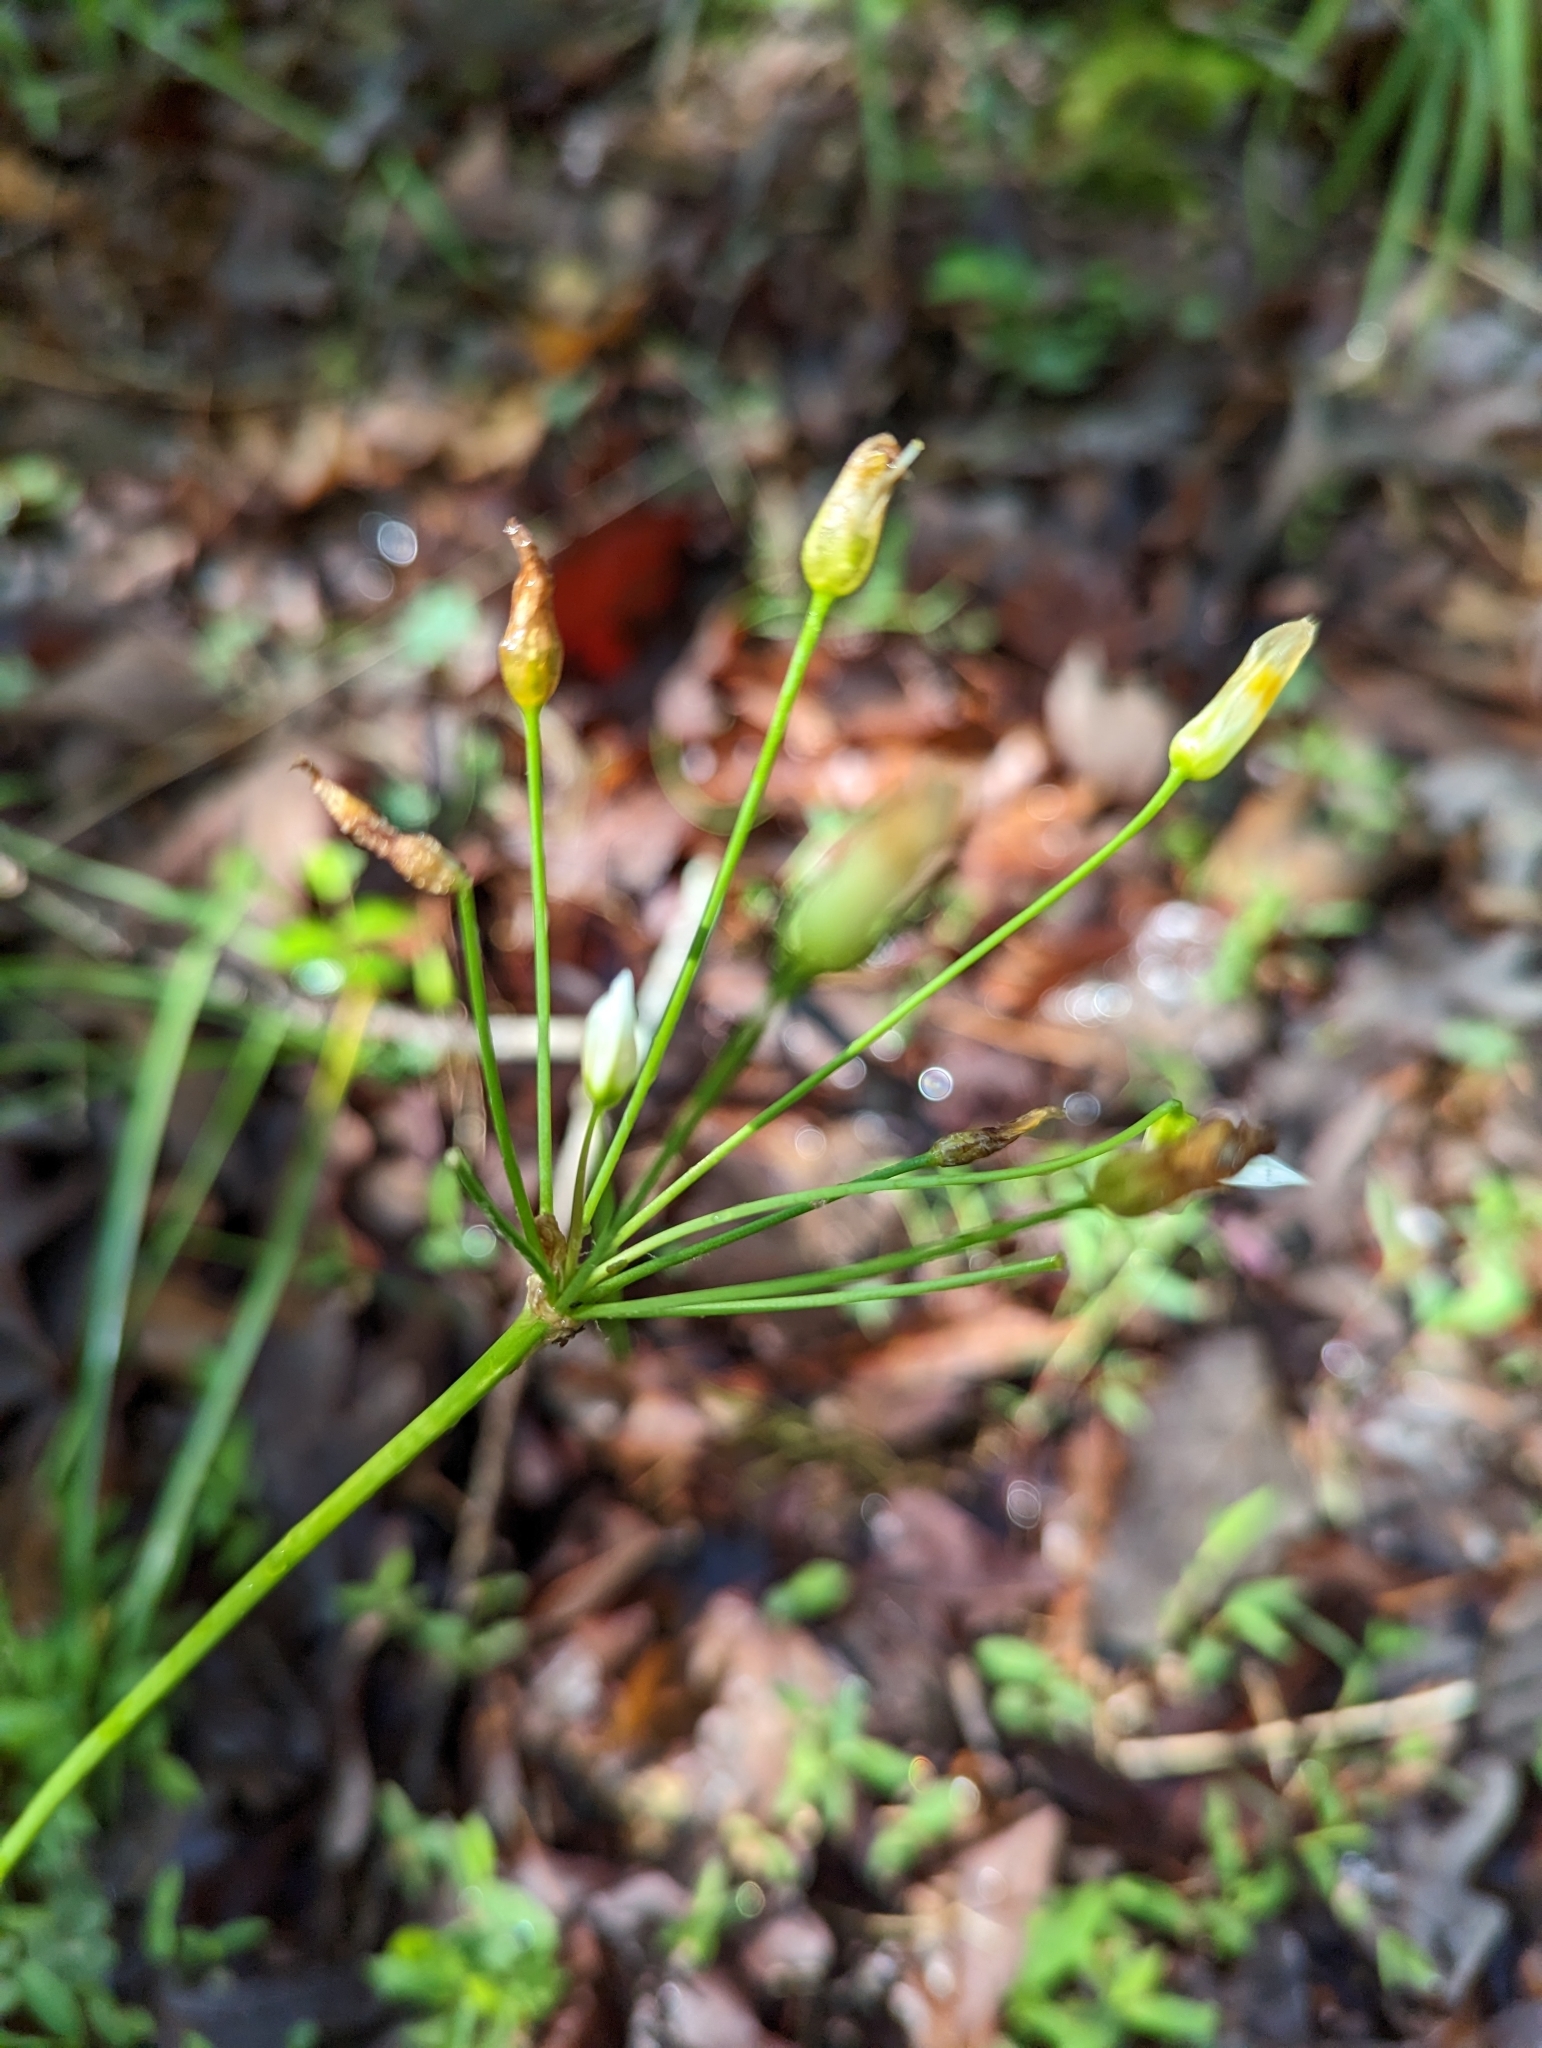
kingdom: Plantae
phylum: Tracheophyta
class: Liliopsida
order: Asparagales
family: Amaryllidaceae
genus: Nothoscordum
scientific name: Nothoscordum bivalve
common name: Crow-poison
